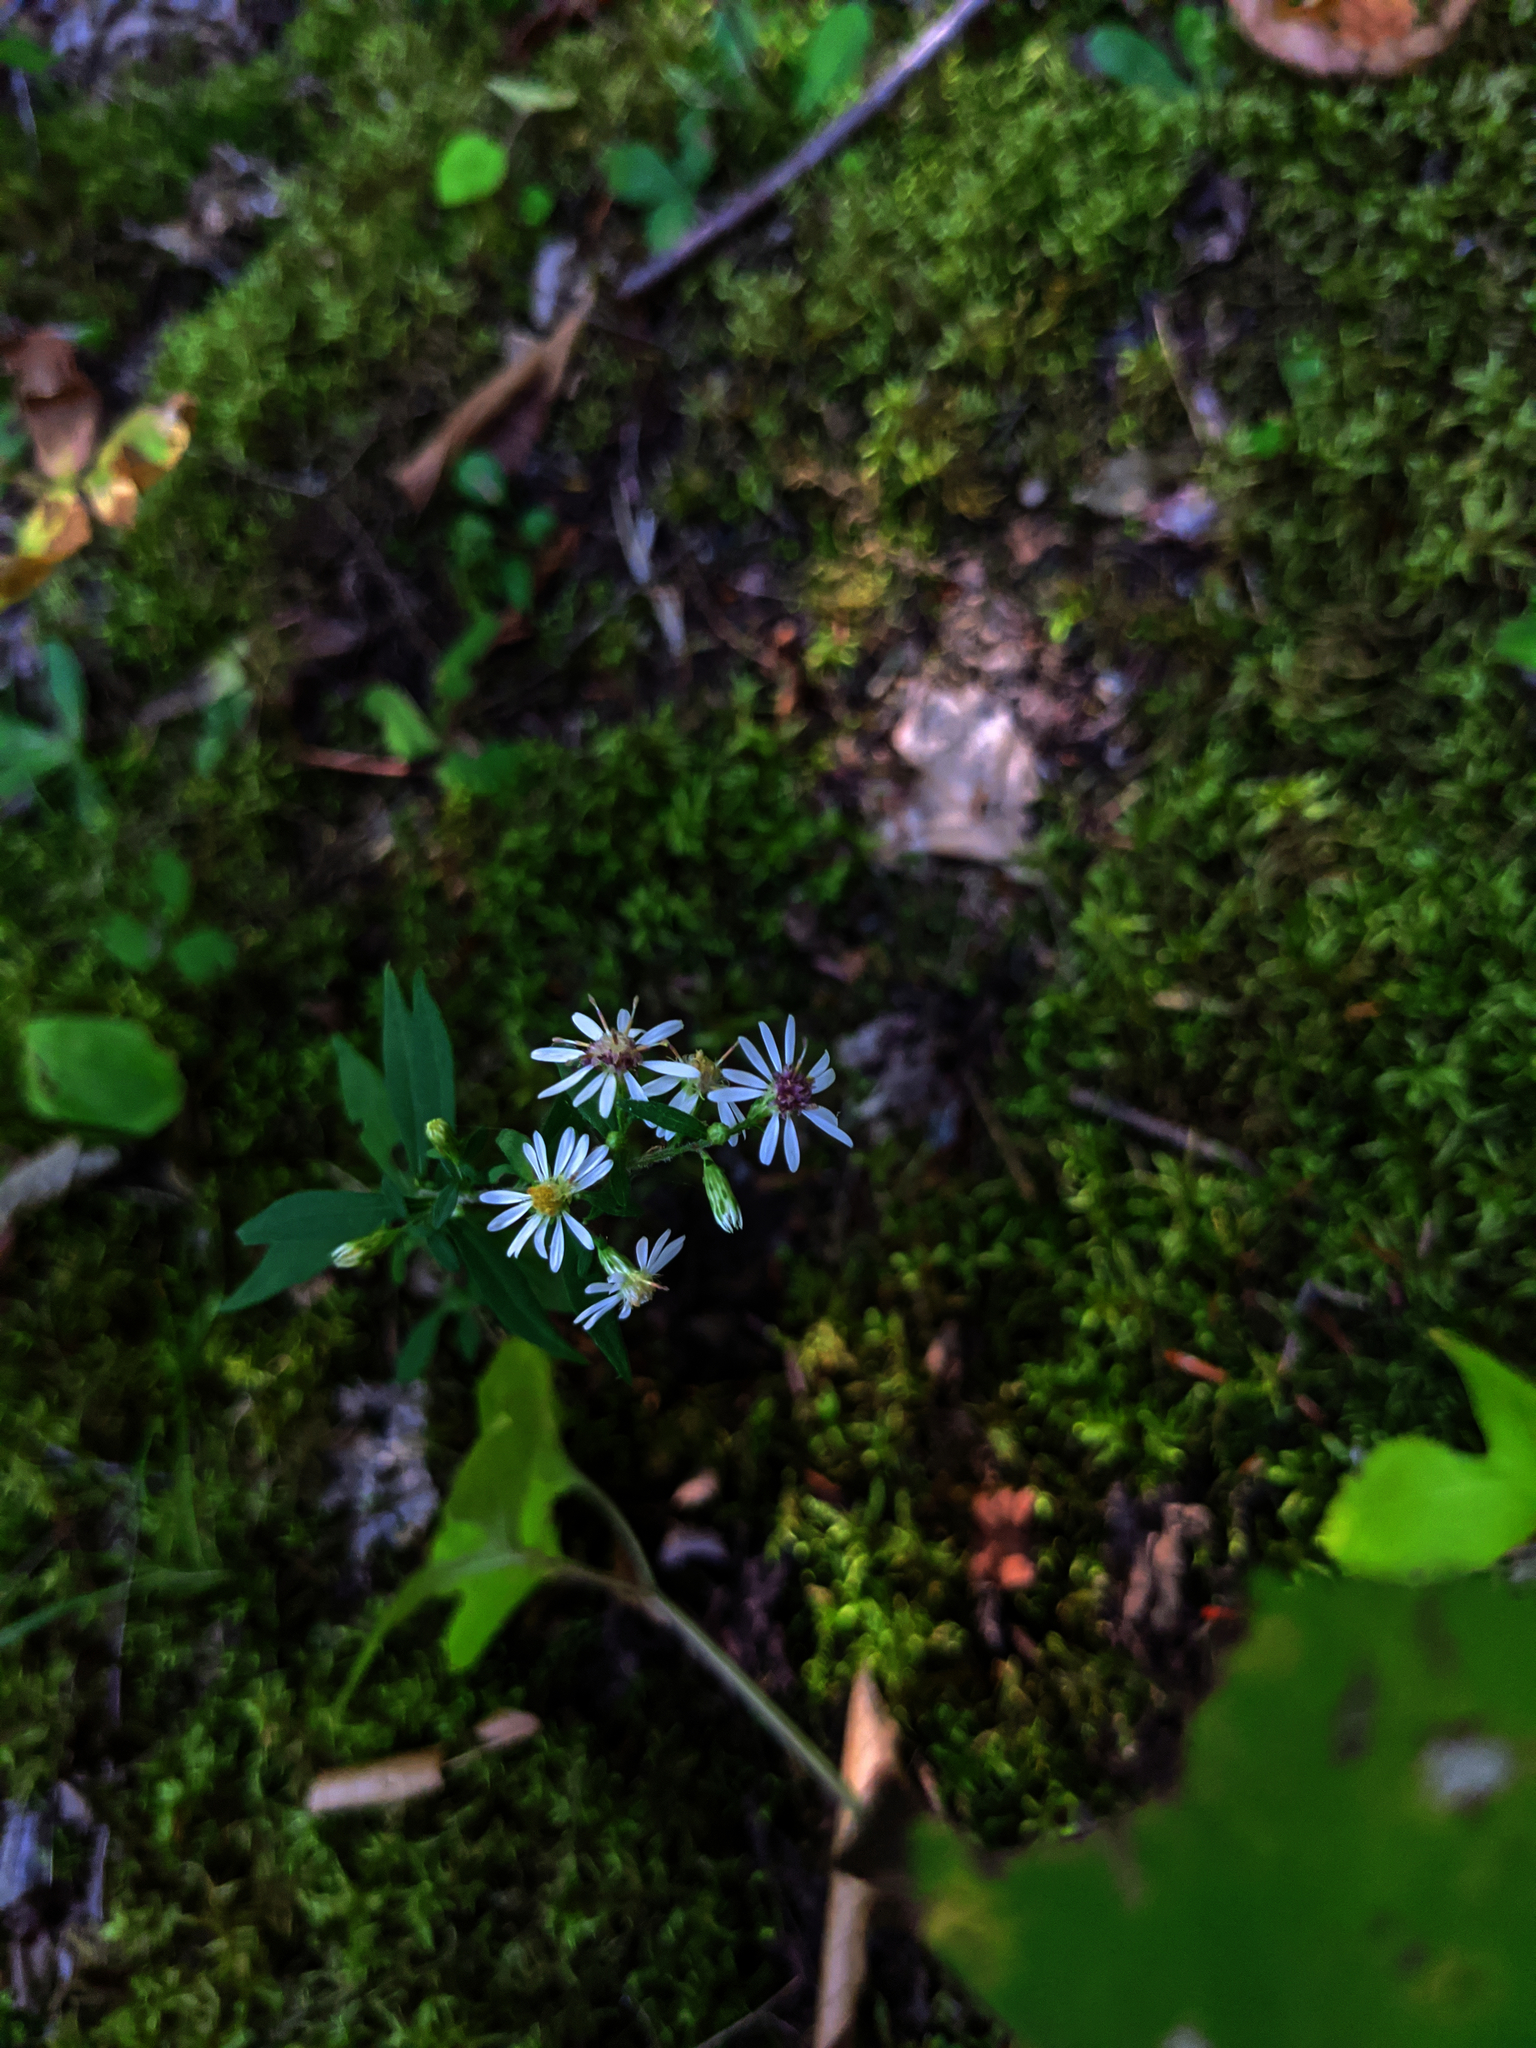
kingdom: Plantae
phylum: Tracheophyta
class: Magnoliopsida
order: Asterales
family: Asteraceae
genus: Symphyotrichum
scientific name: Symphyotrichum lateriflorum
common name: Calico aster
